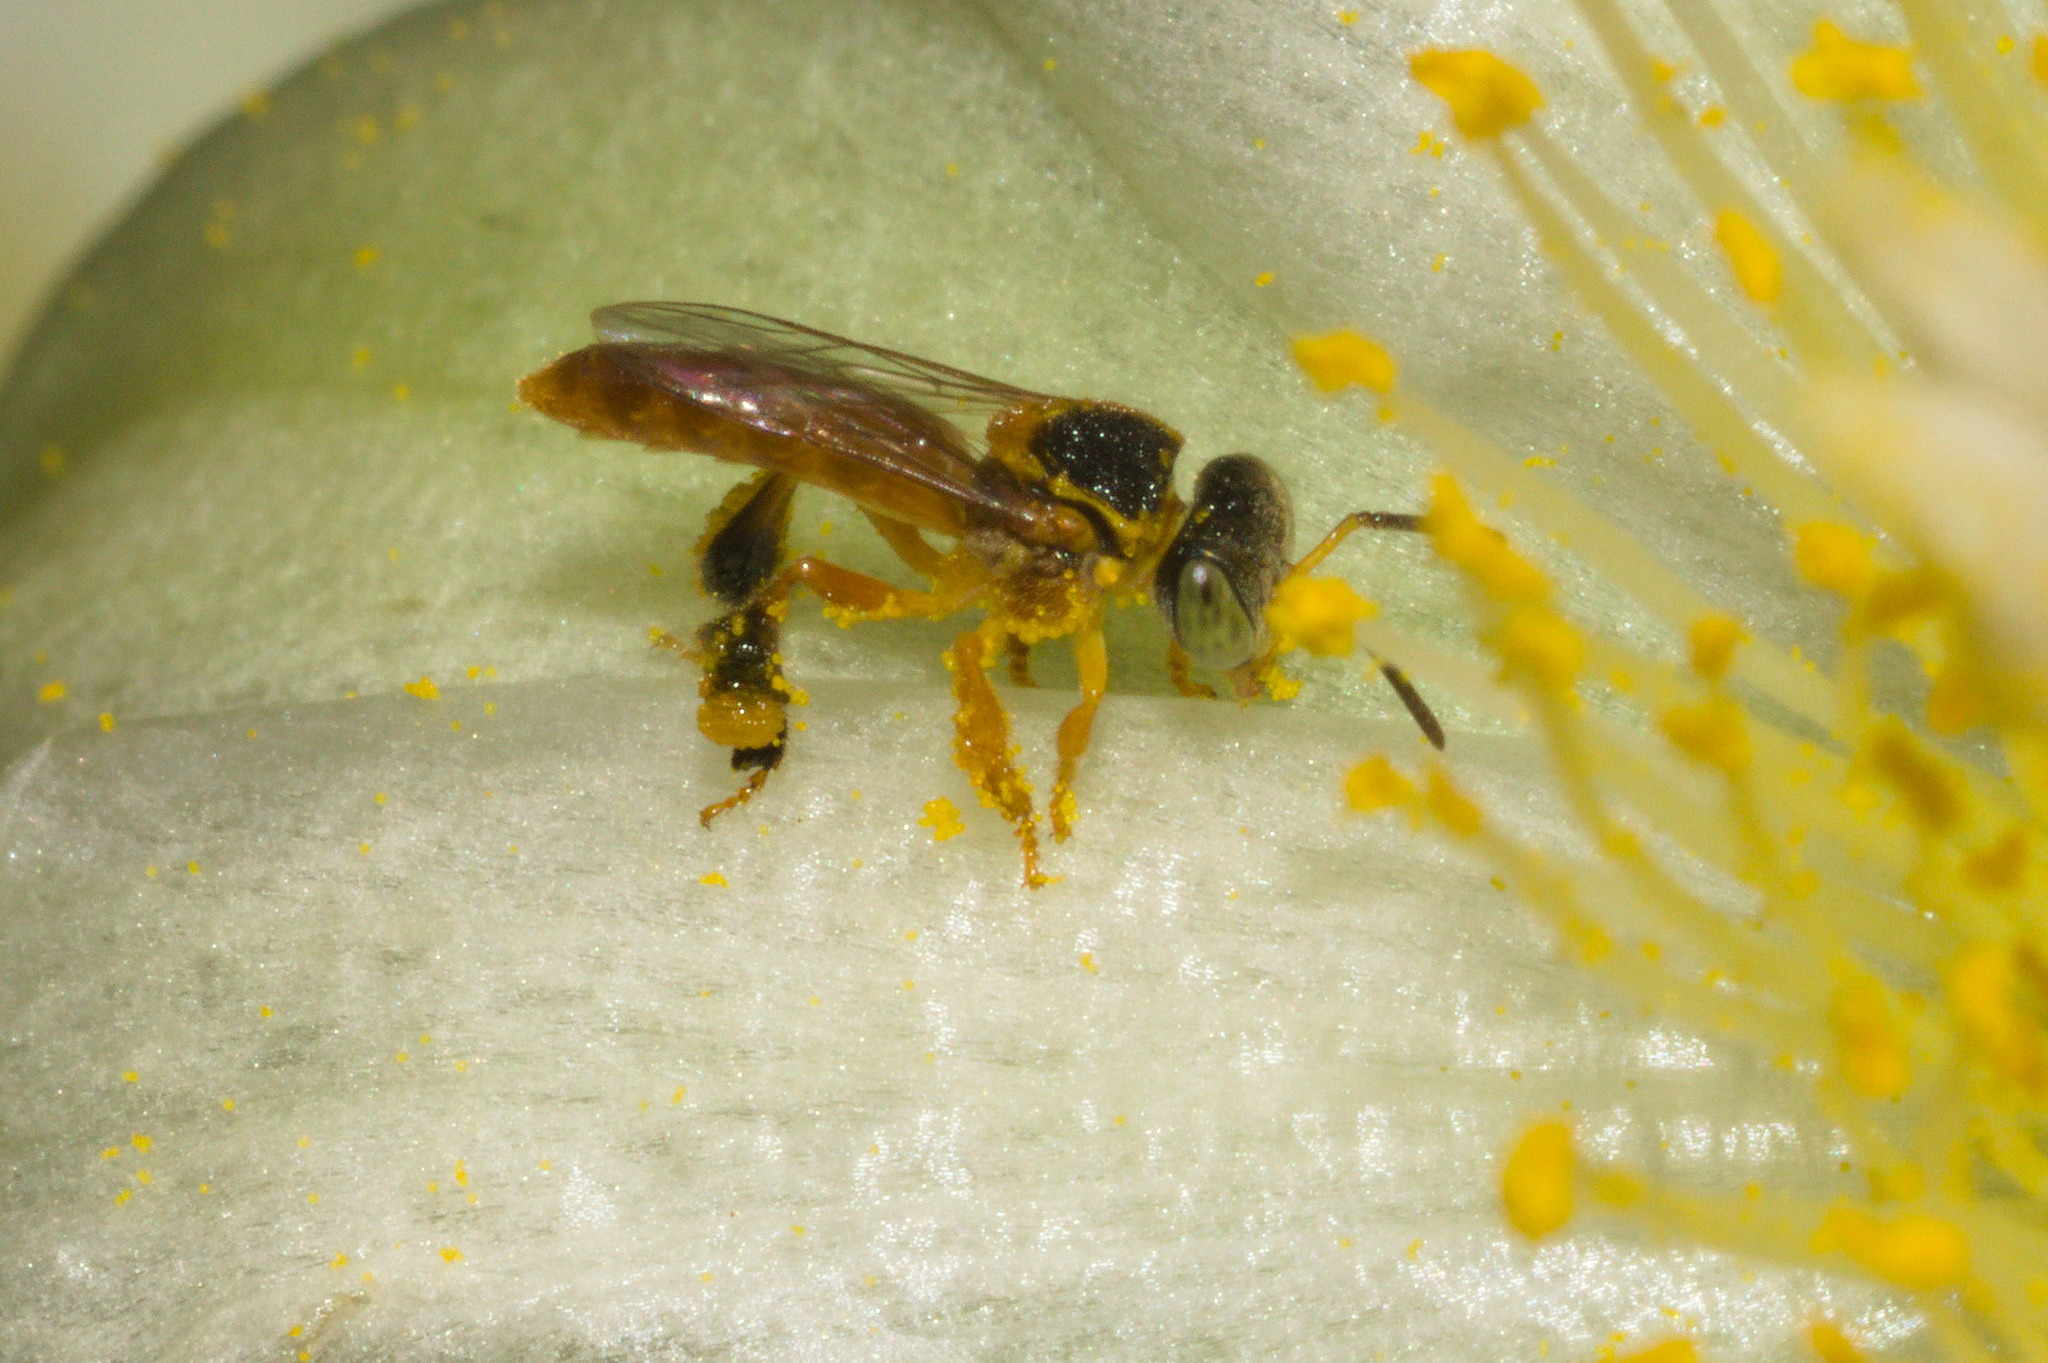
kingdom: Animalia
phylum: Arthropoda
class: Insecta
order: Hymenoptera
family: Apidae
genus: Tetragonisca
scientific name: Tetragonisca fiebrigi
